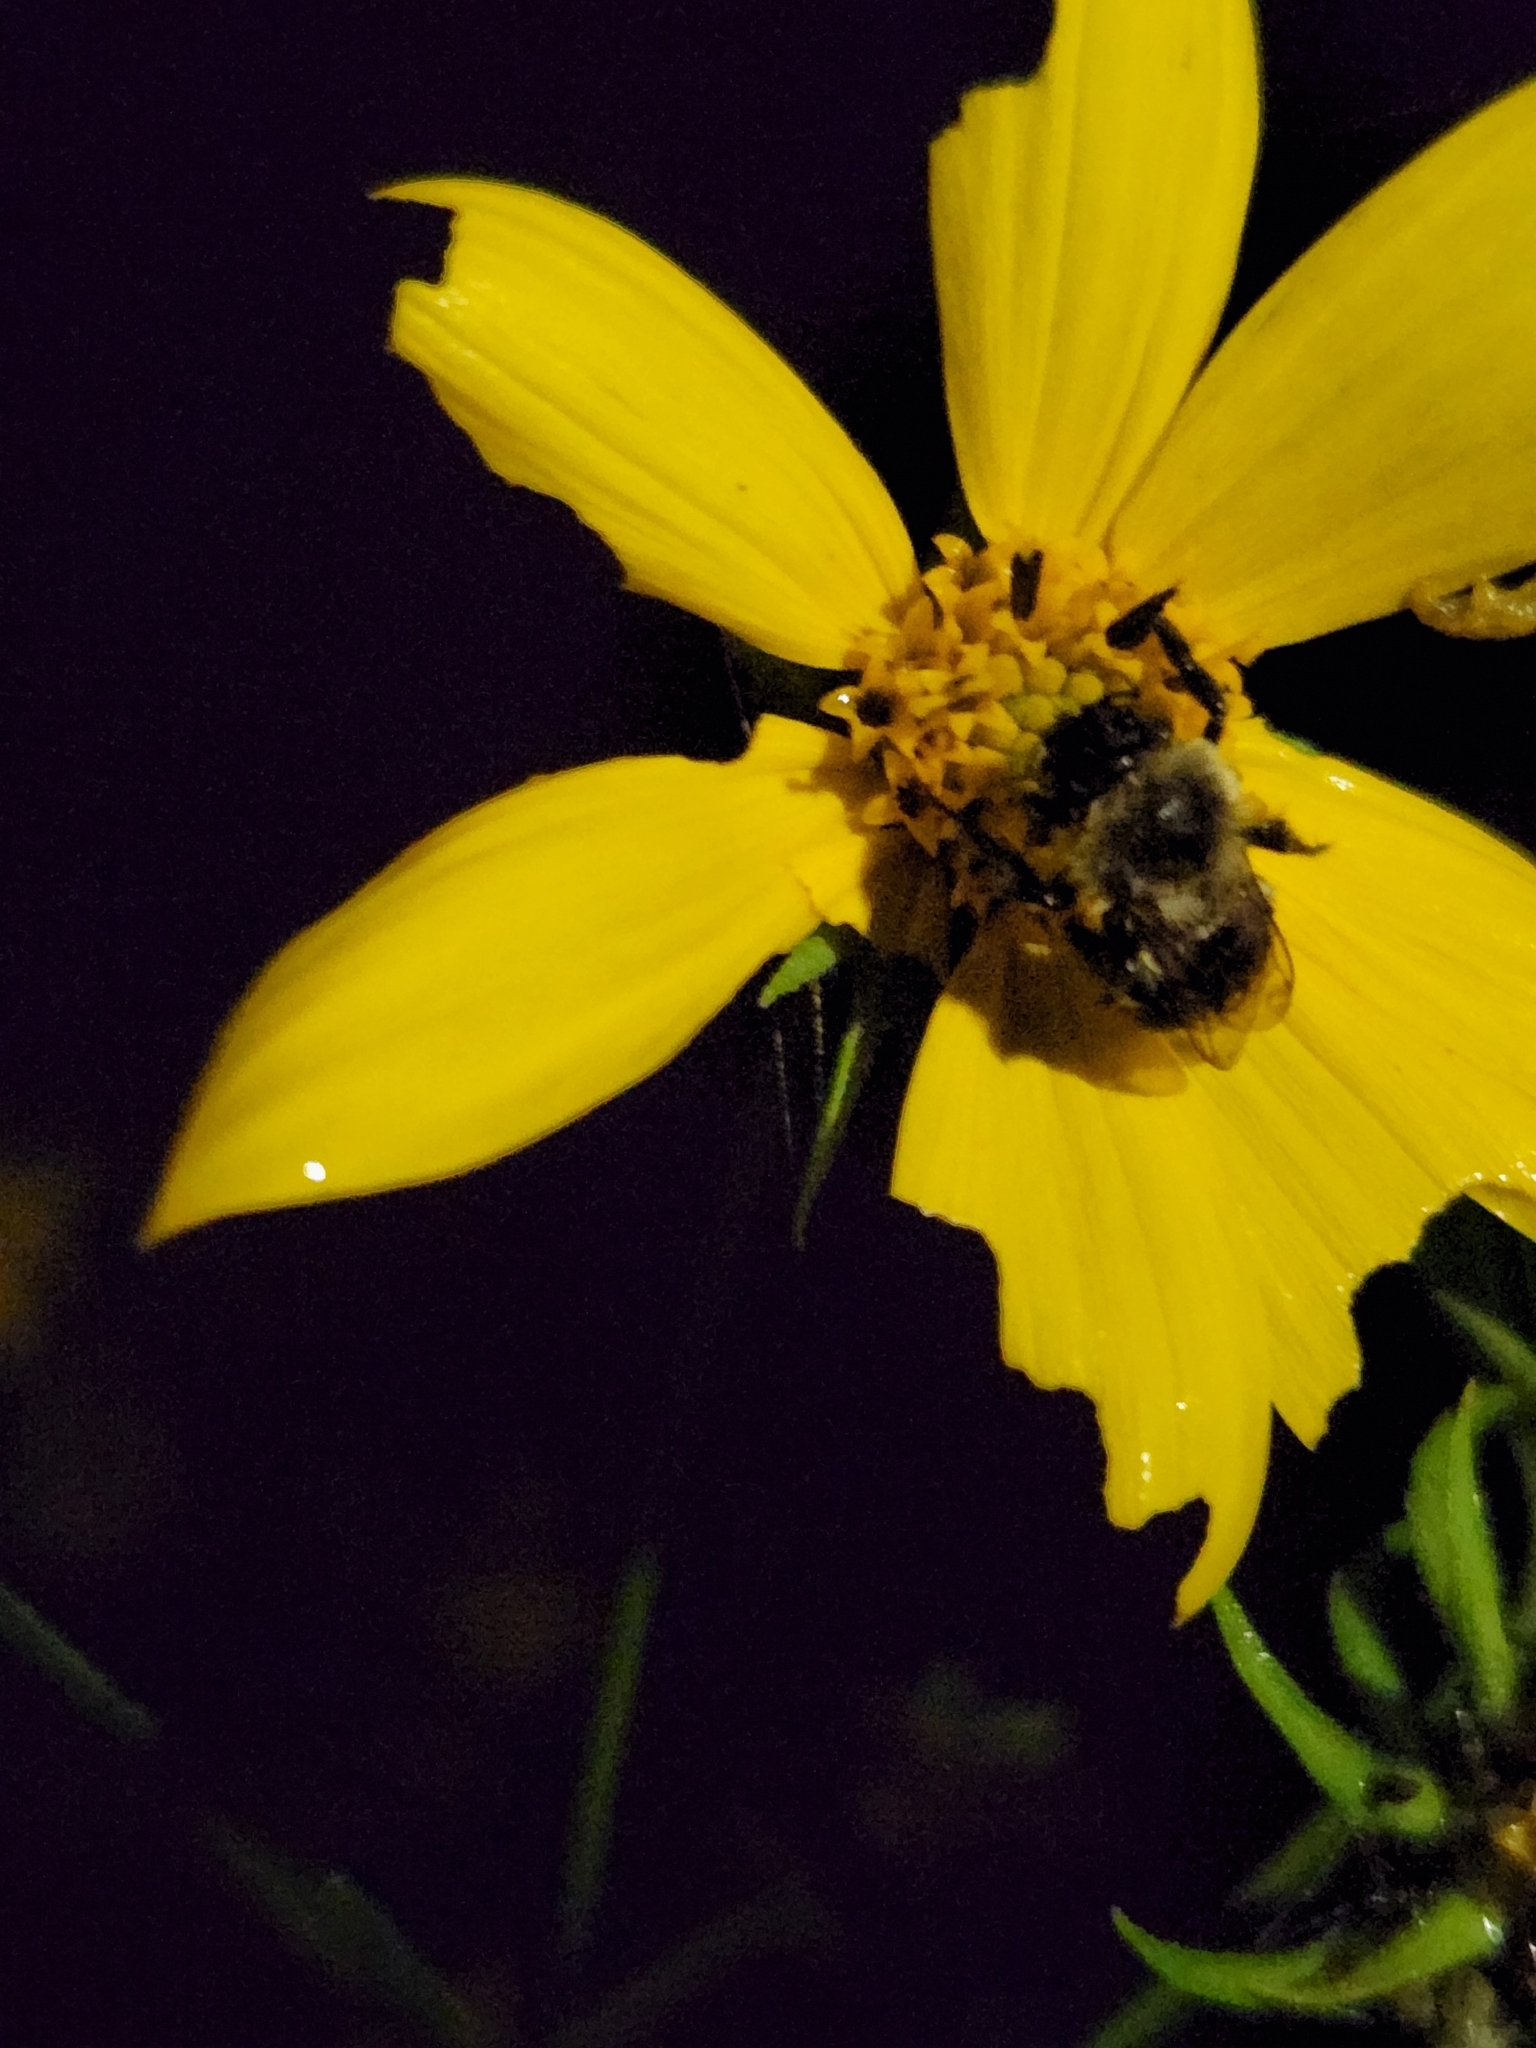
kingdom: Animalia
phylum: Arthropoda
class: Insecta
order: Hymenoptera
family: Apidae
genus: Bombus
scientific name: Bombus impatiens
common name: Common eastern bumble bee
